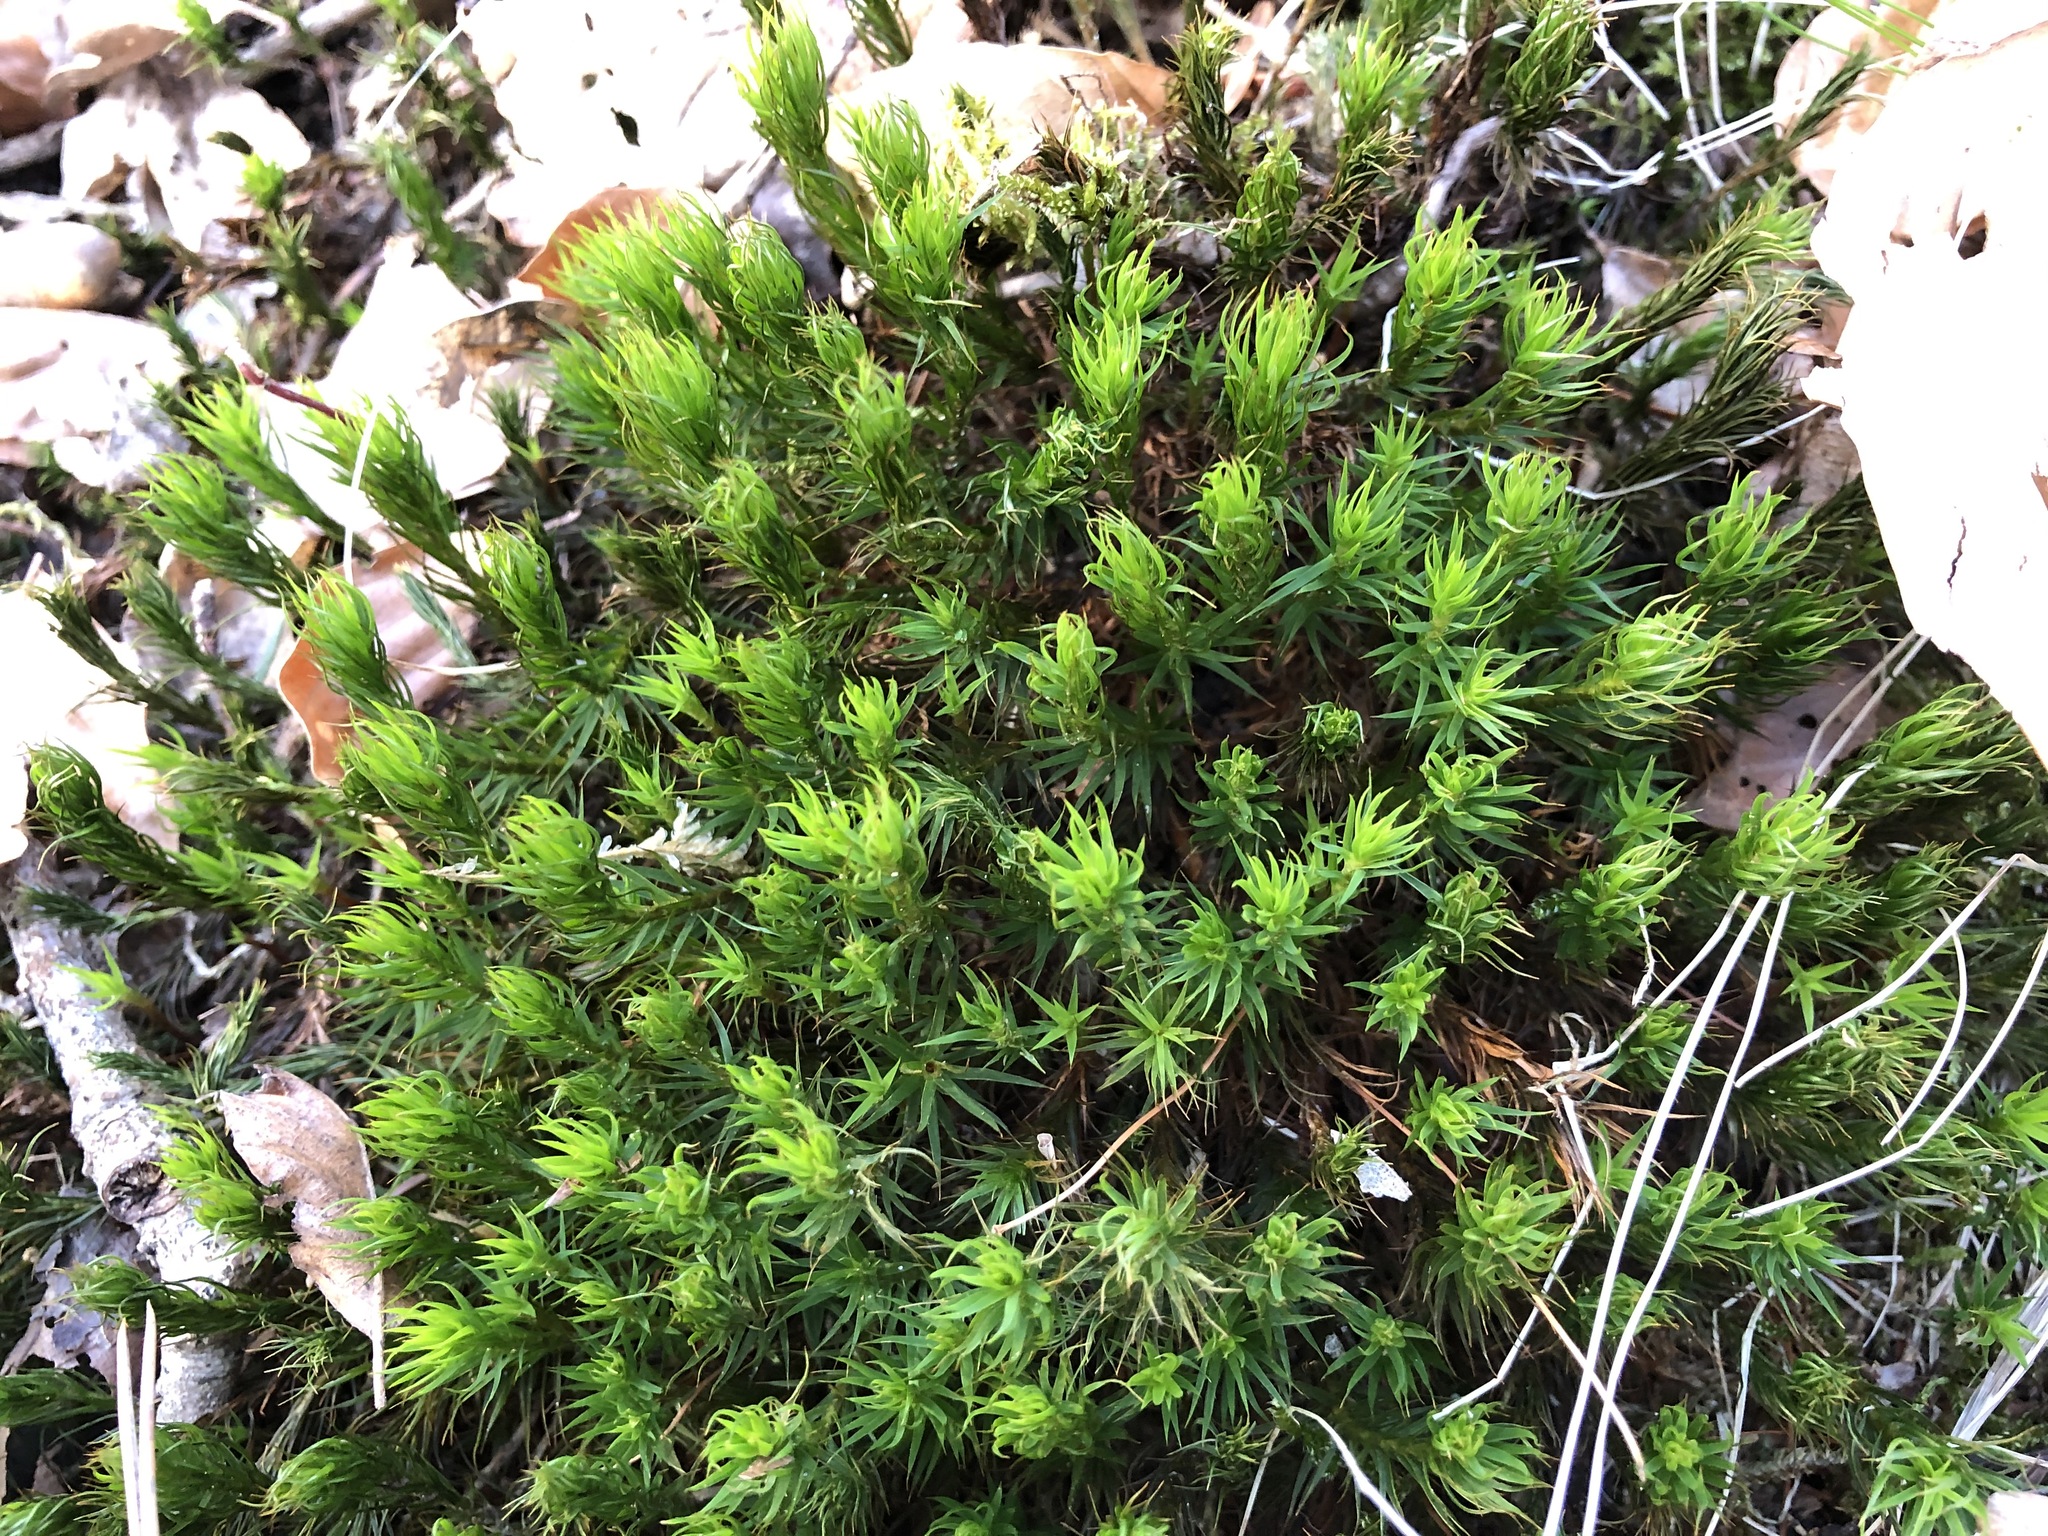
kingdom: Plantae
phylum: Bryophyta
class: Polytrichopsida
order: Polytrichales
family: Polytrichaceae
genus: Polytrichum
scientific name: Polytrichum formosum
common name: Bank haircap moss
